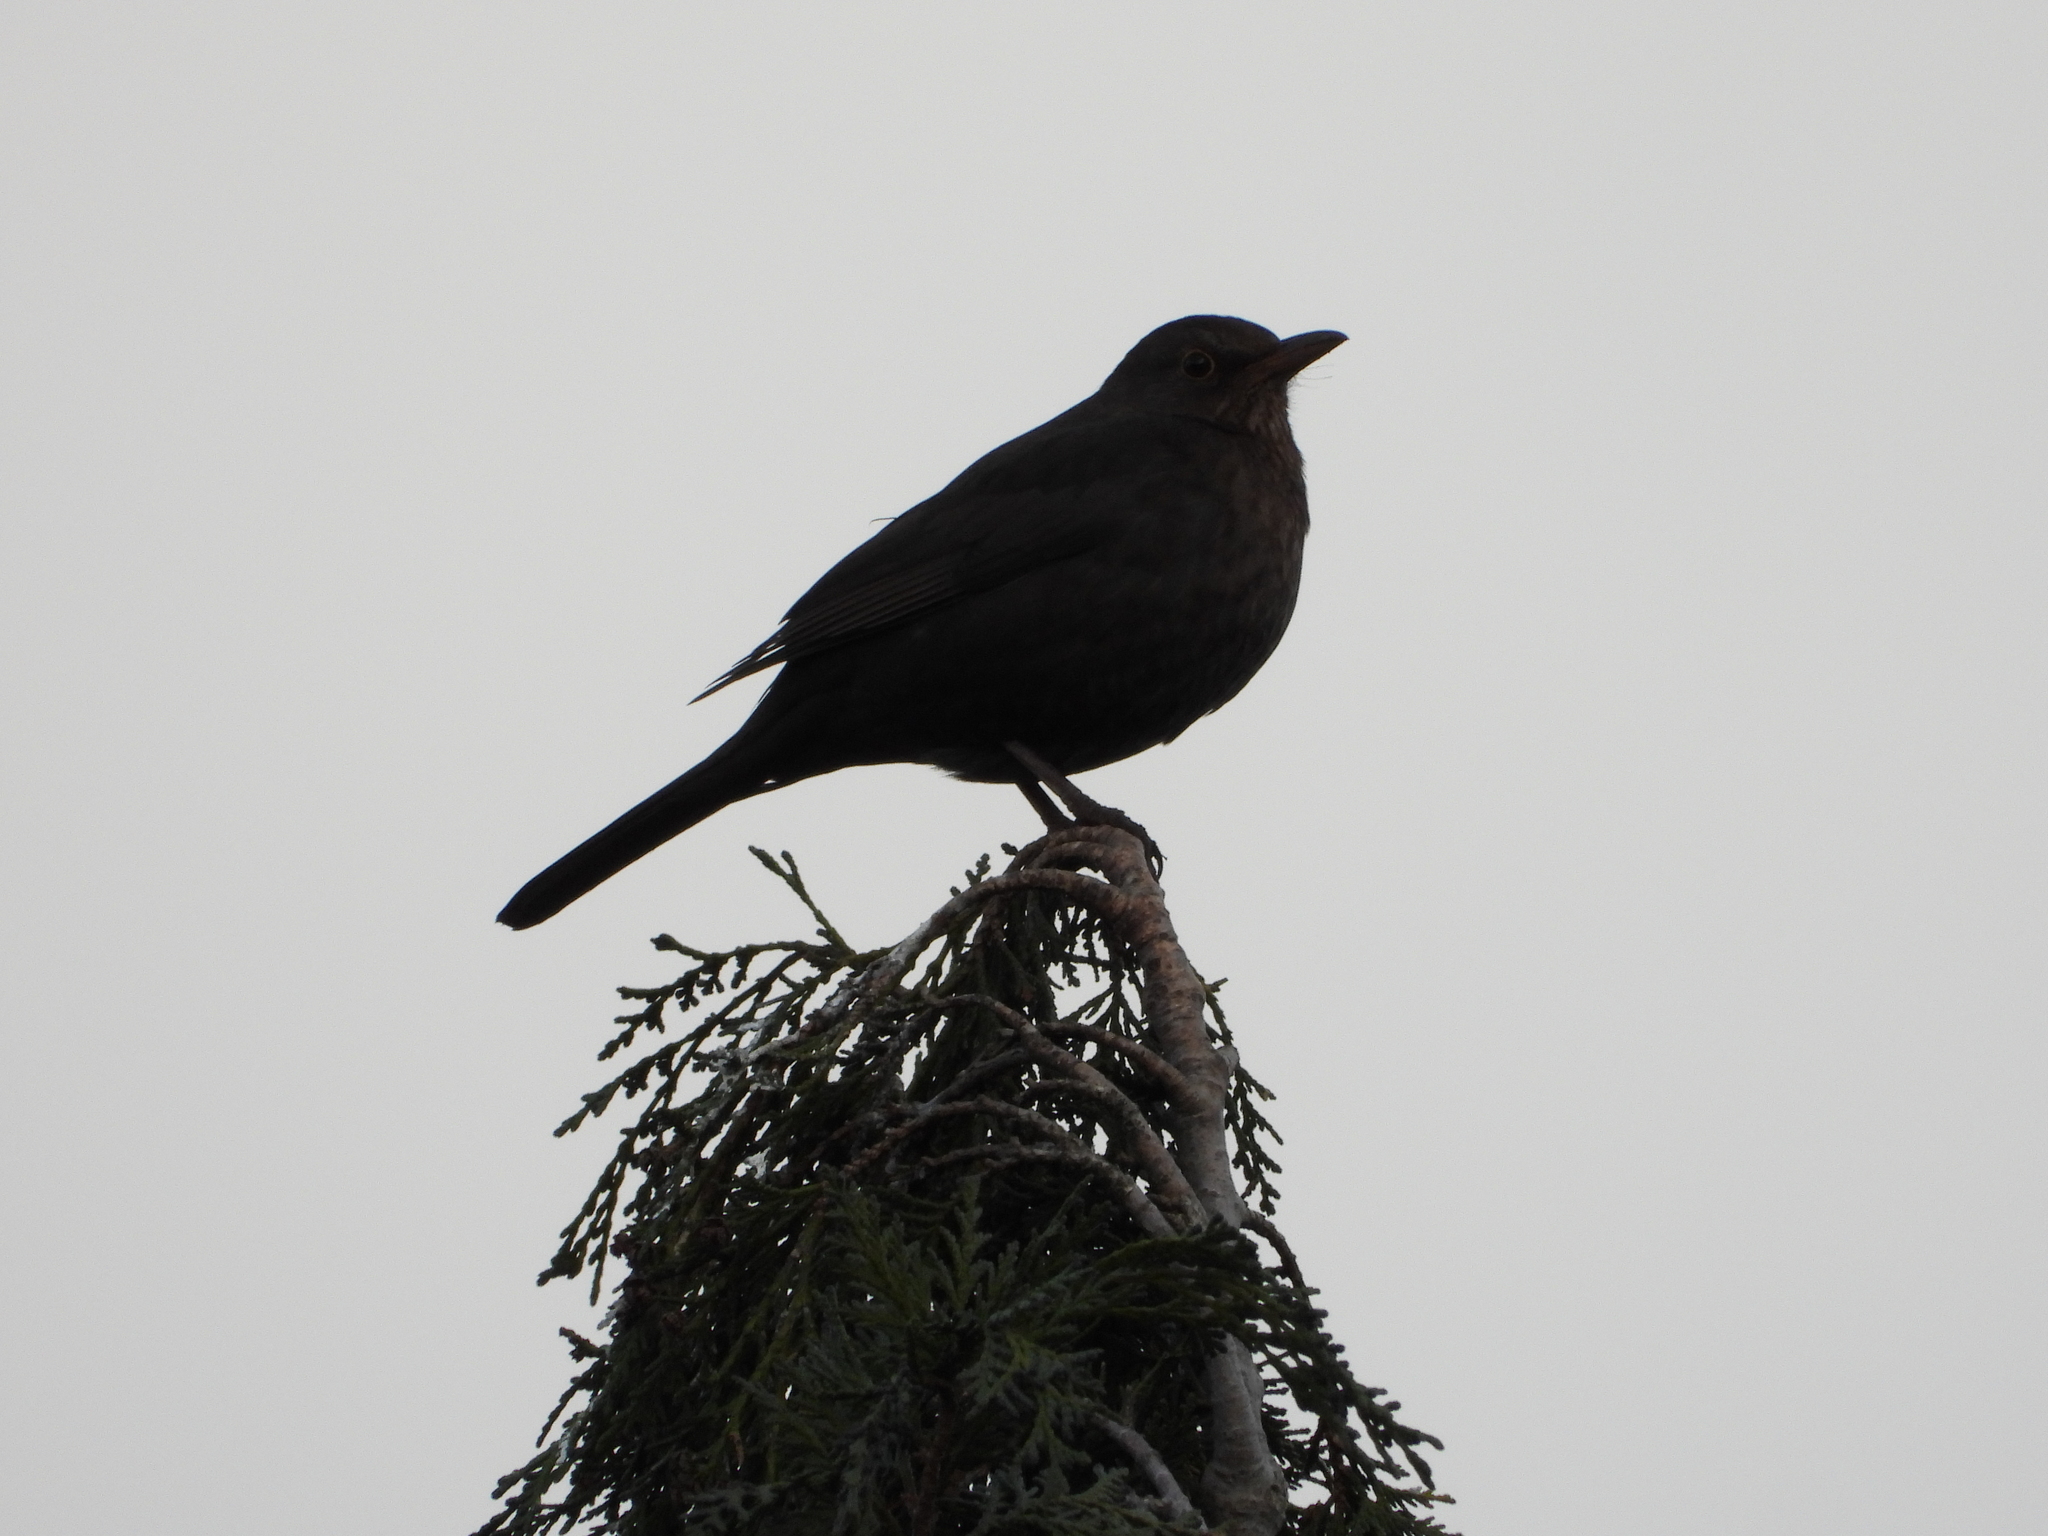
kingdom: Animalia
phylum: Chordata
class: Aves
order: Passeriformes
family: Turdidae
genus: Turdus
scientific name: Turdus merula
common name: Common blackbird
